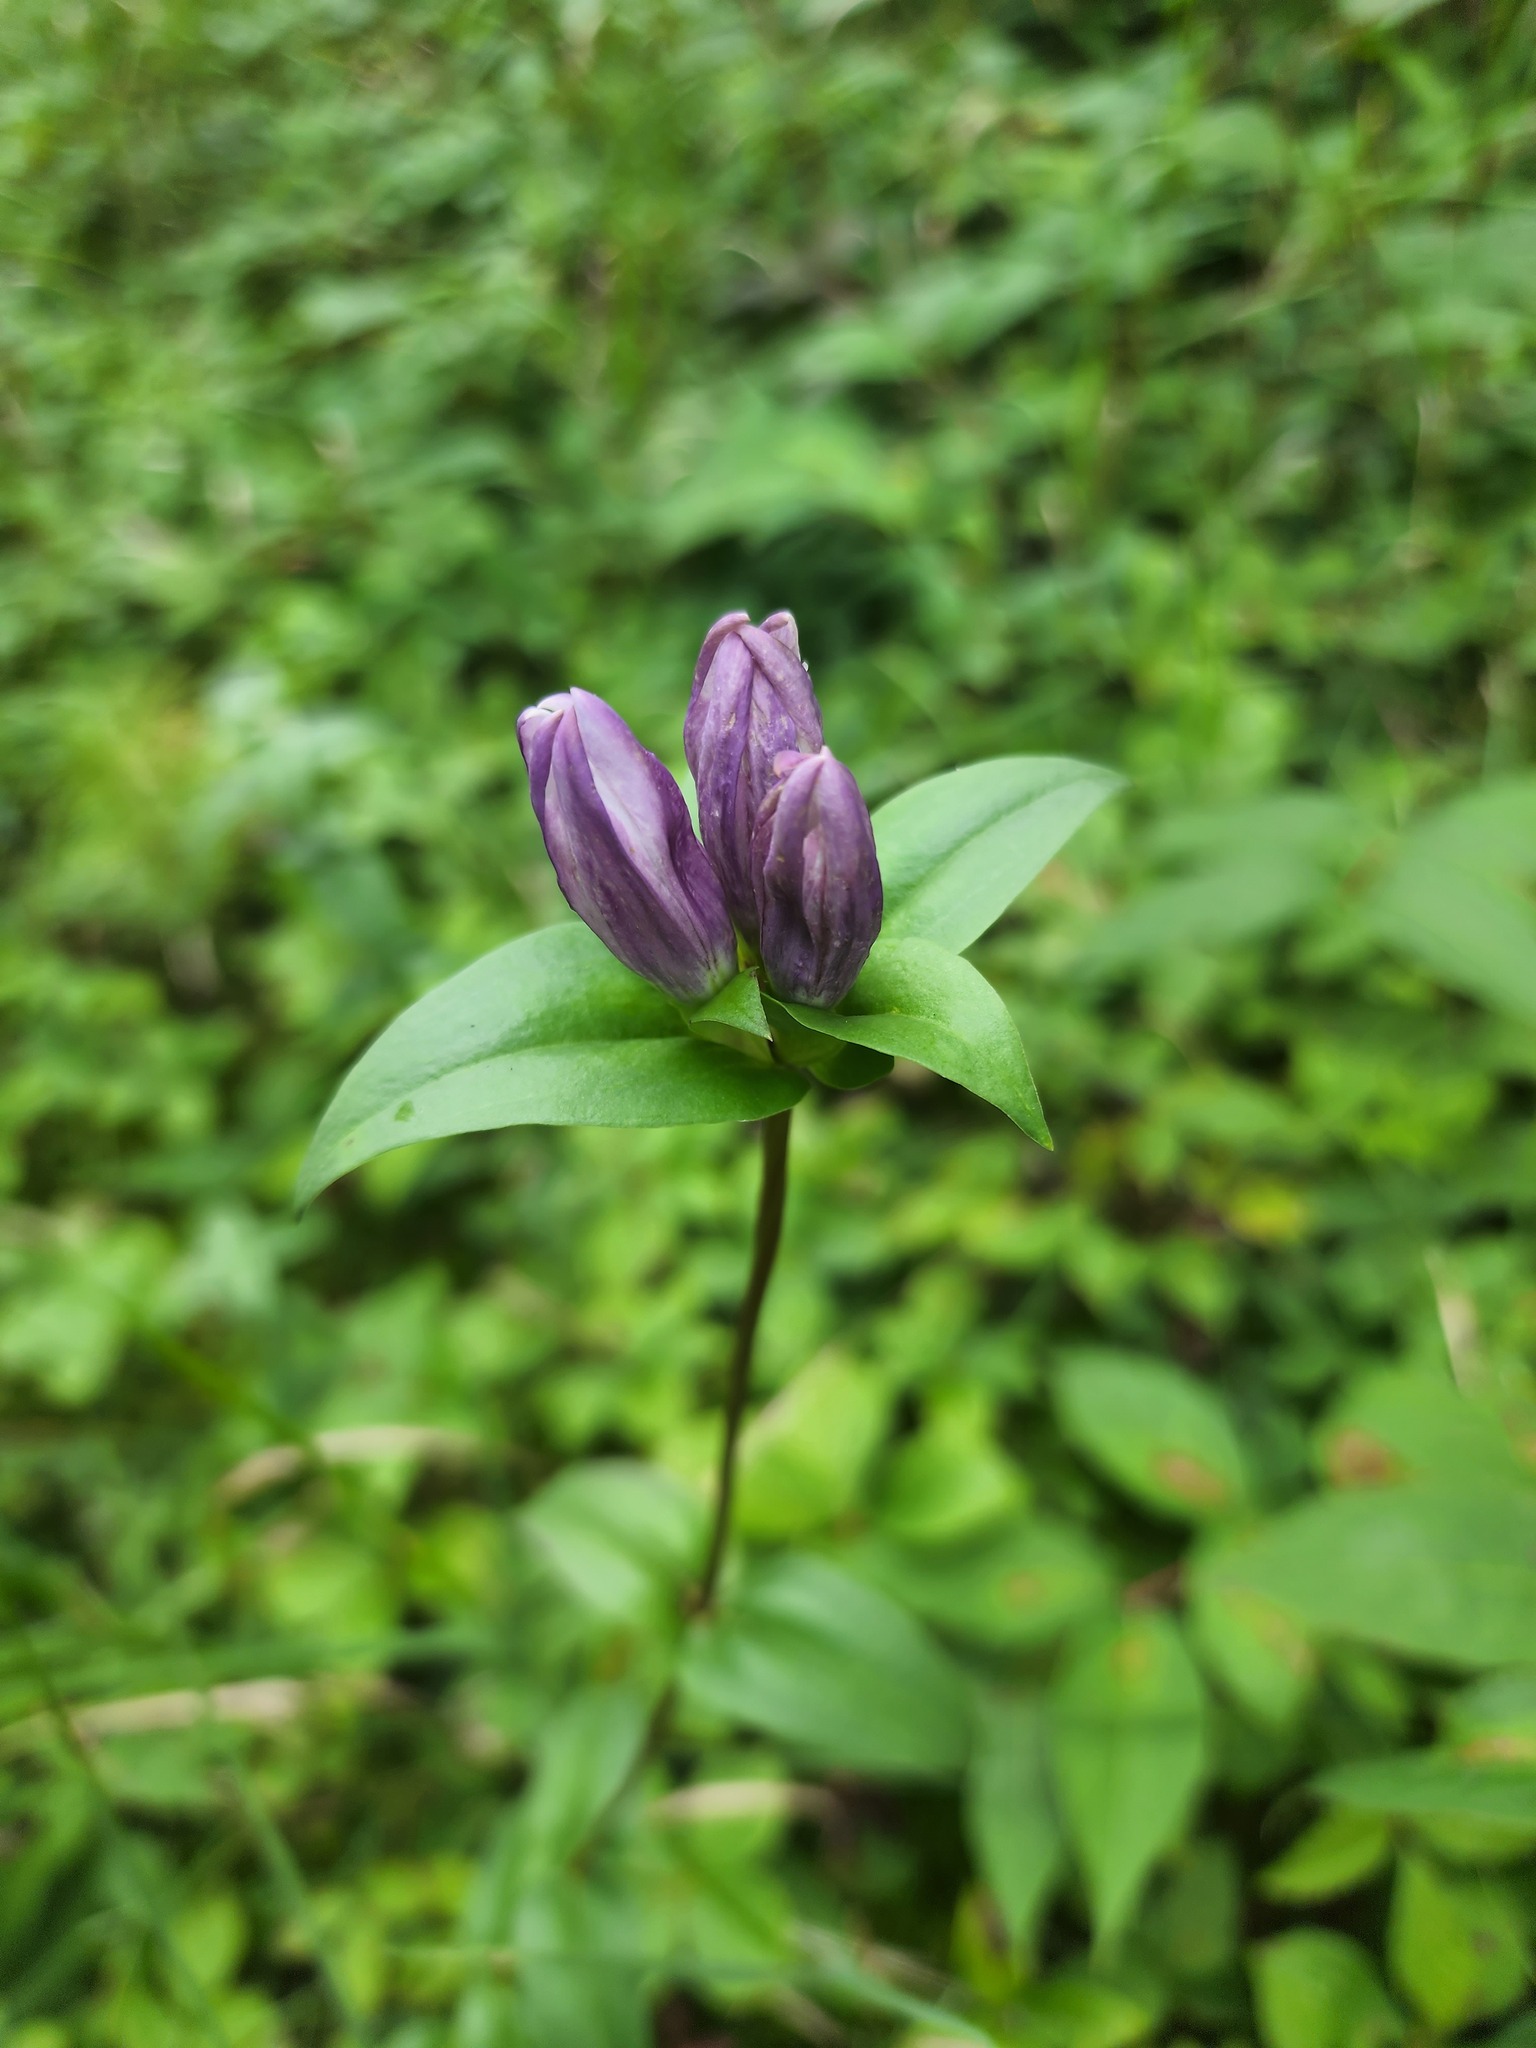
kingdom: Plantae
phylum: Tracheophyta
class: Magnoliopsida
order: Gentianales
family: Gentianaceae
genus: Gentiana
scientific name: Gentiana rubricaulis
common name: Purple-stemmed gentian
